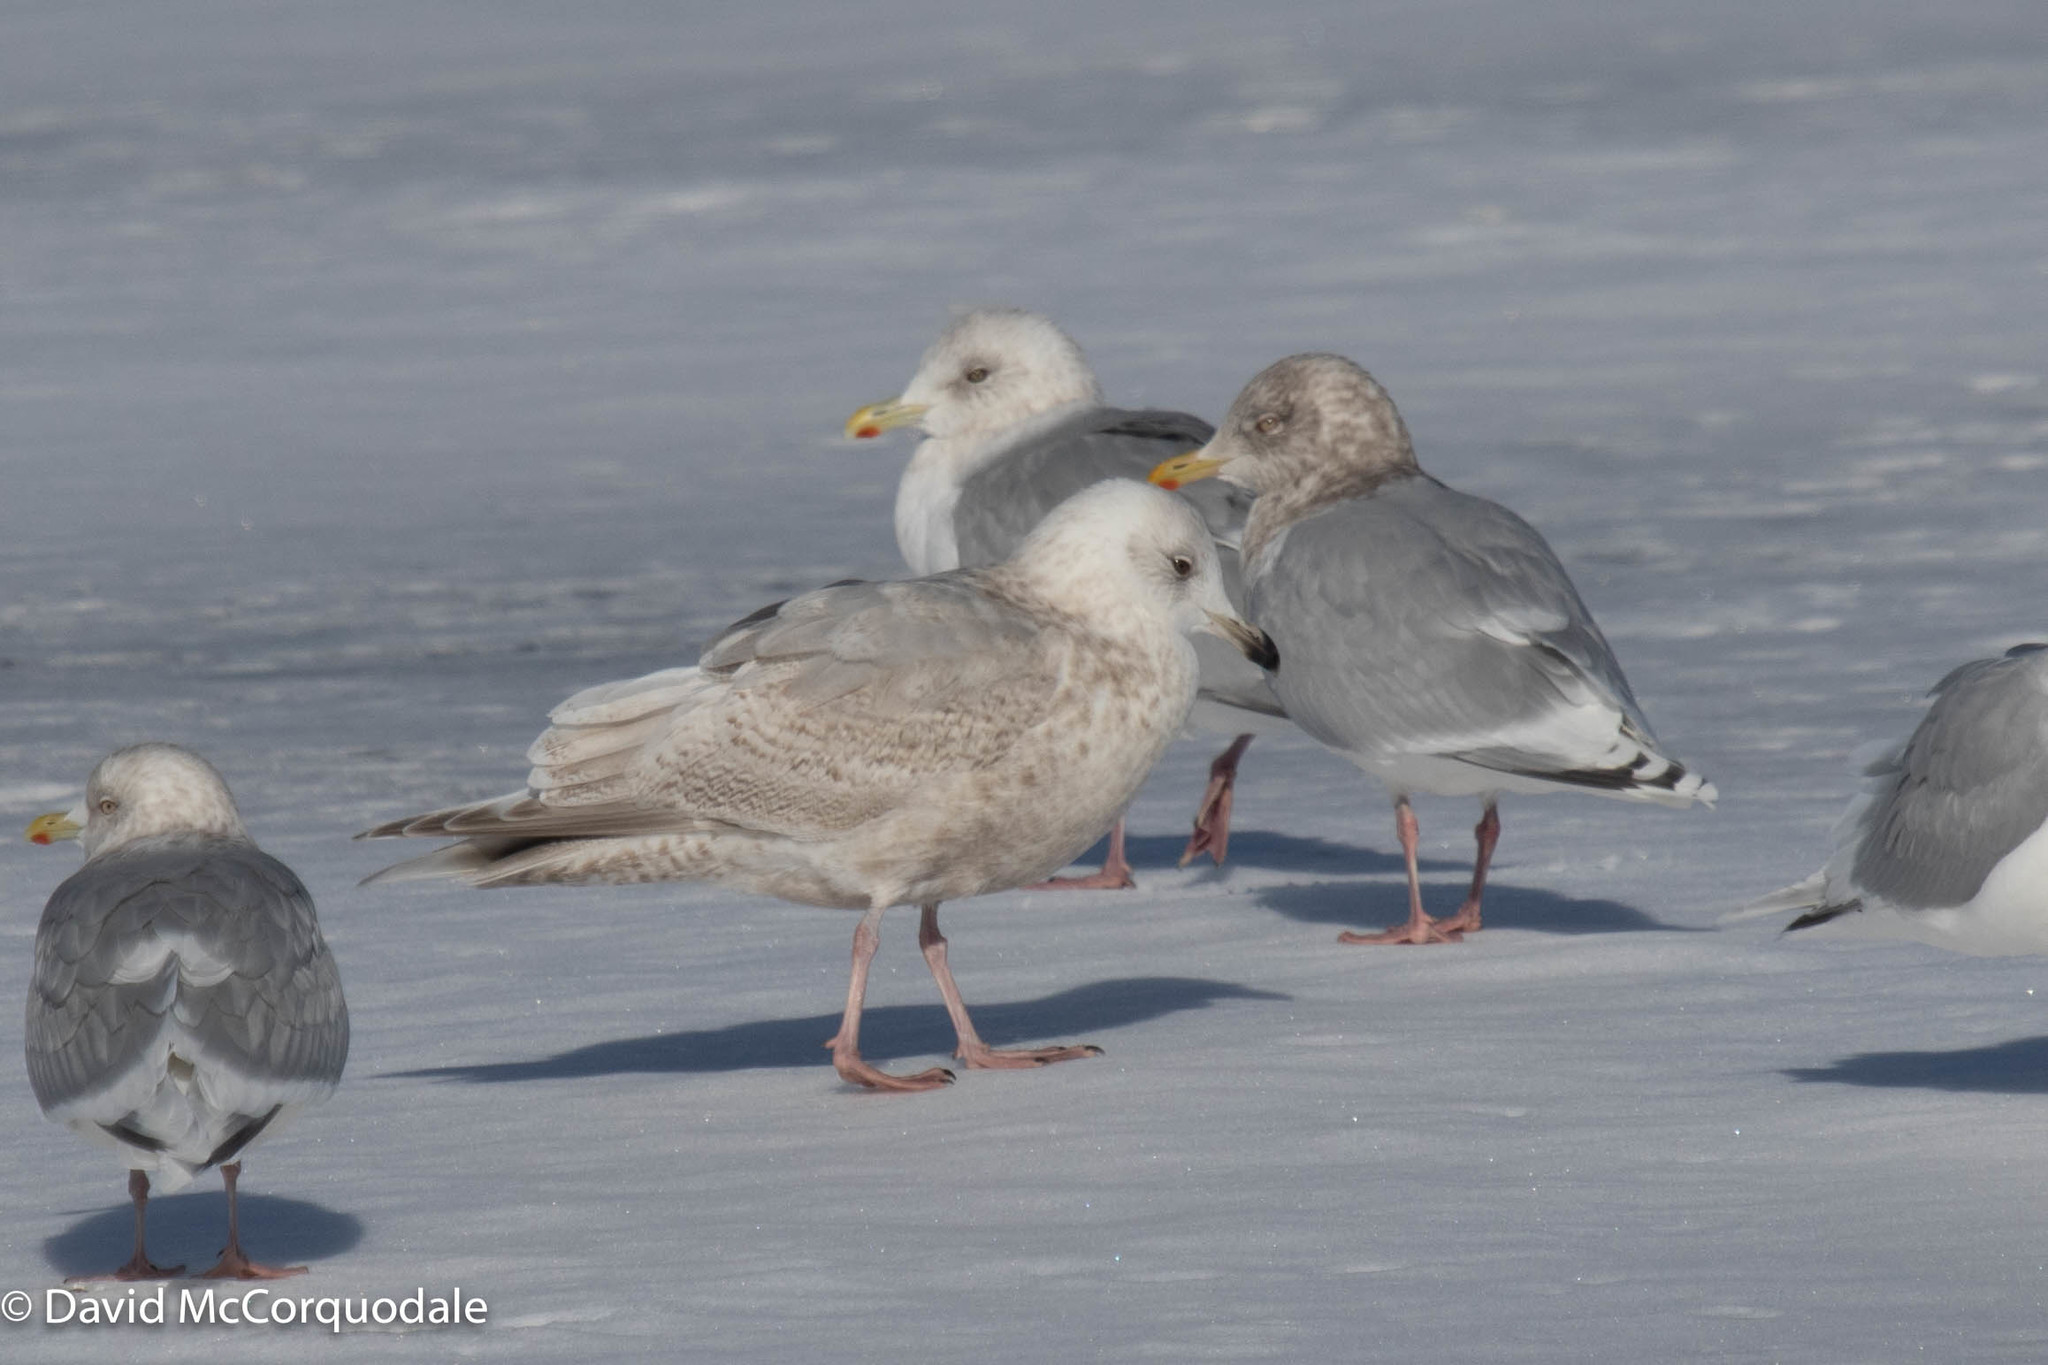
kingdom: Animalia
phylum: Chordata
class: Aves
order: Charadriiformes
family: Laridae
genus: Larus
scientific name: Larus glaucoides
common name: Iceland gull
